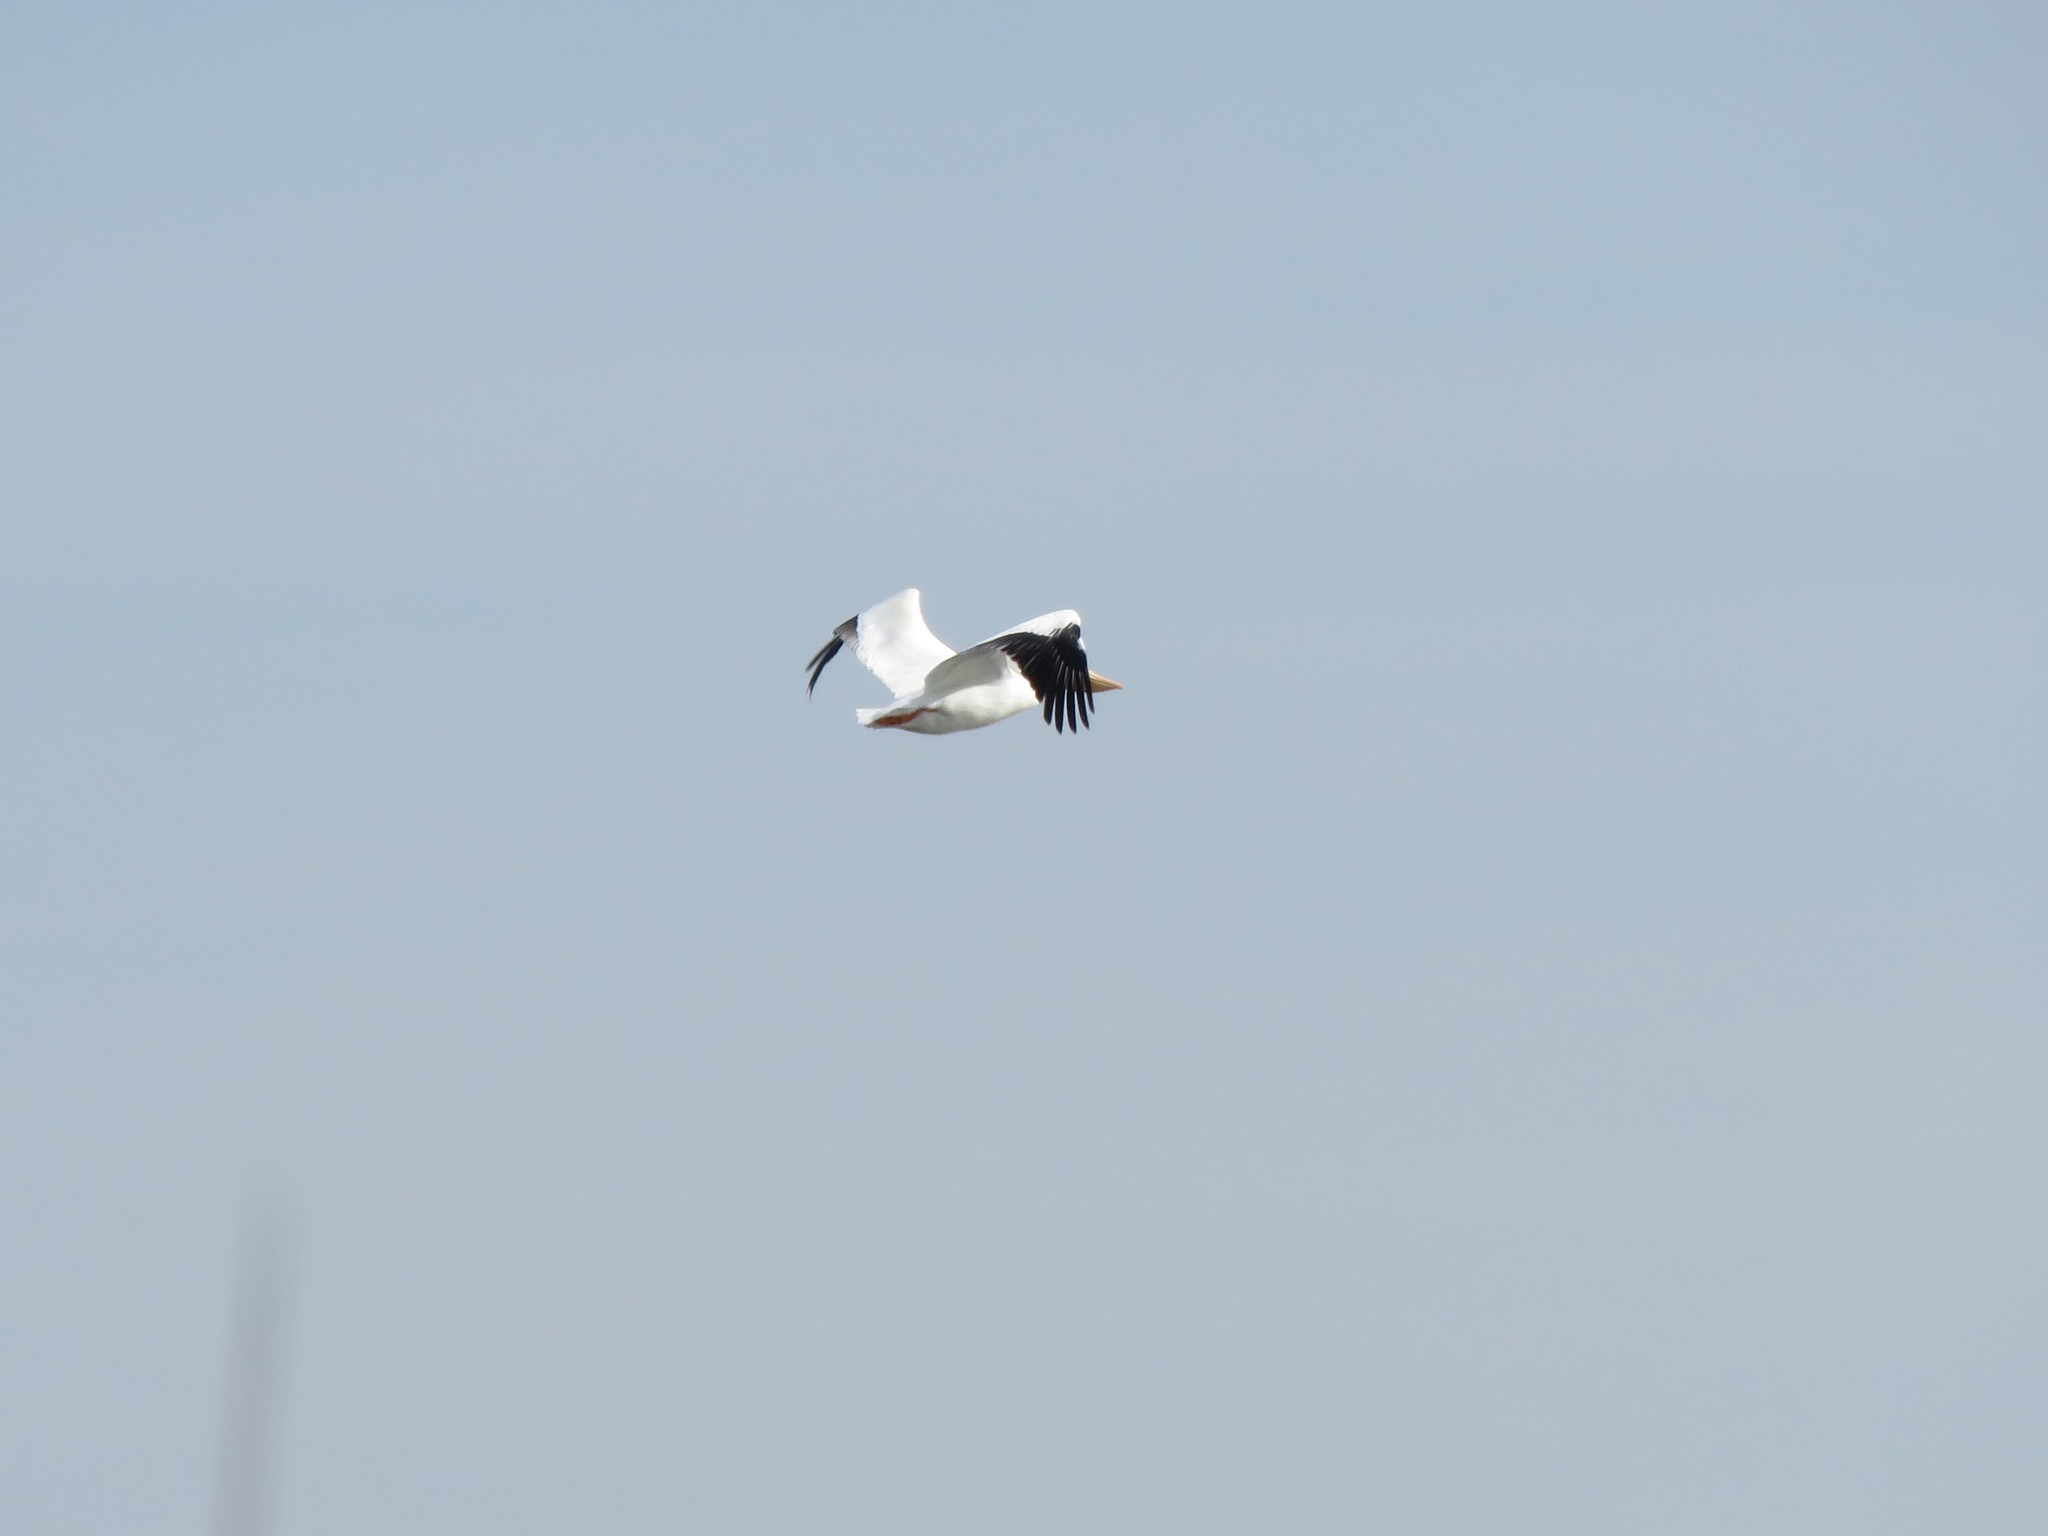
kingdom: Animalia
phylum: Chordata
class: Aves
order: Pelecaniformes
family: Pelecanidae
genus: Pelecanus
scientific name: Pelecanus erythrorhynchos
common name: American white pelican
